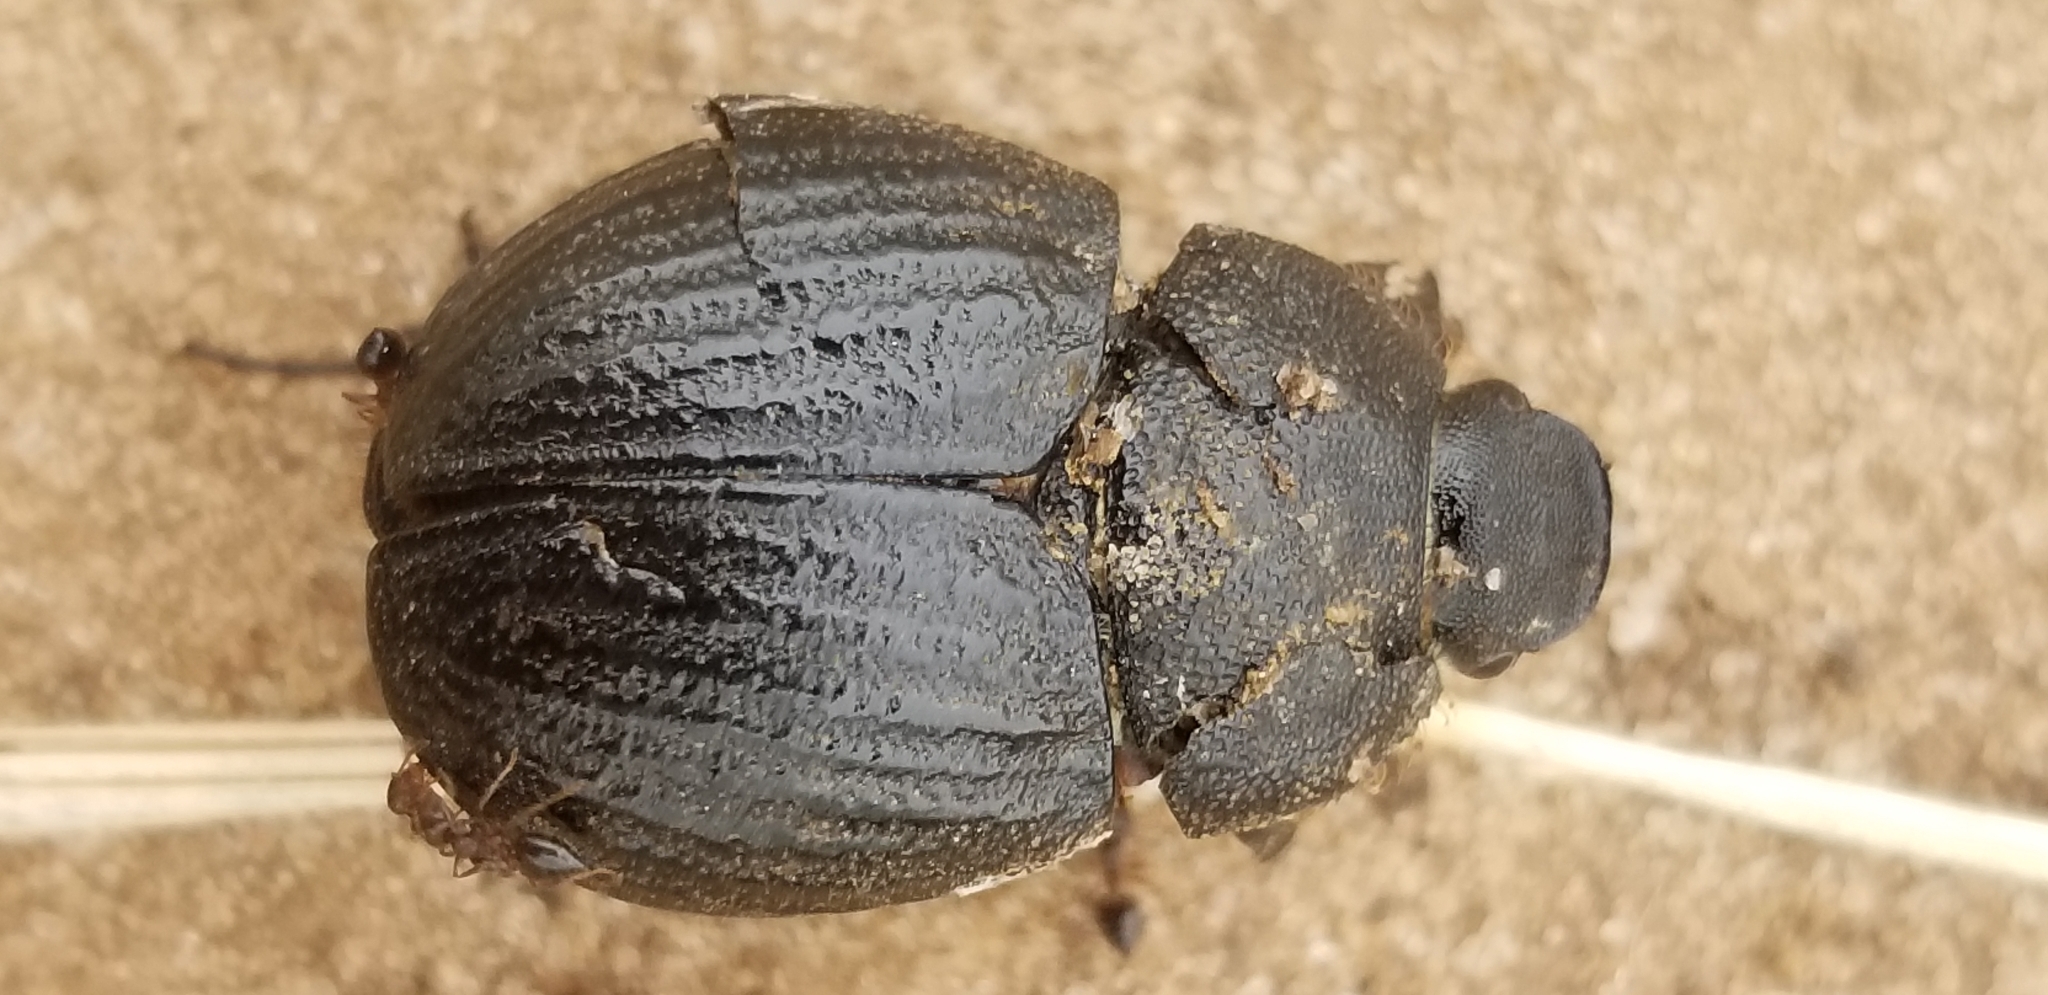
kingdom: Animalia
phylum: Arthropoda
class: Insecta
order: Coleoptera
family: Scarabaeidae
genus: Phyllophaga
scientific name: Phyllophaga cribrosa
